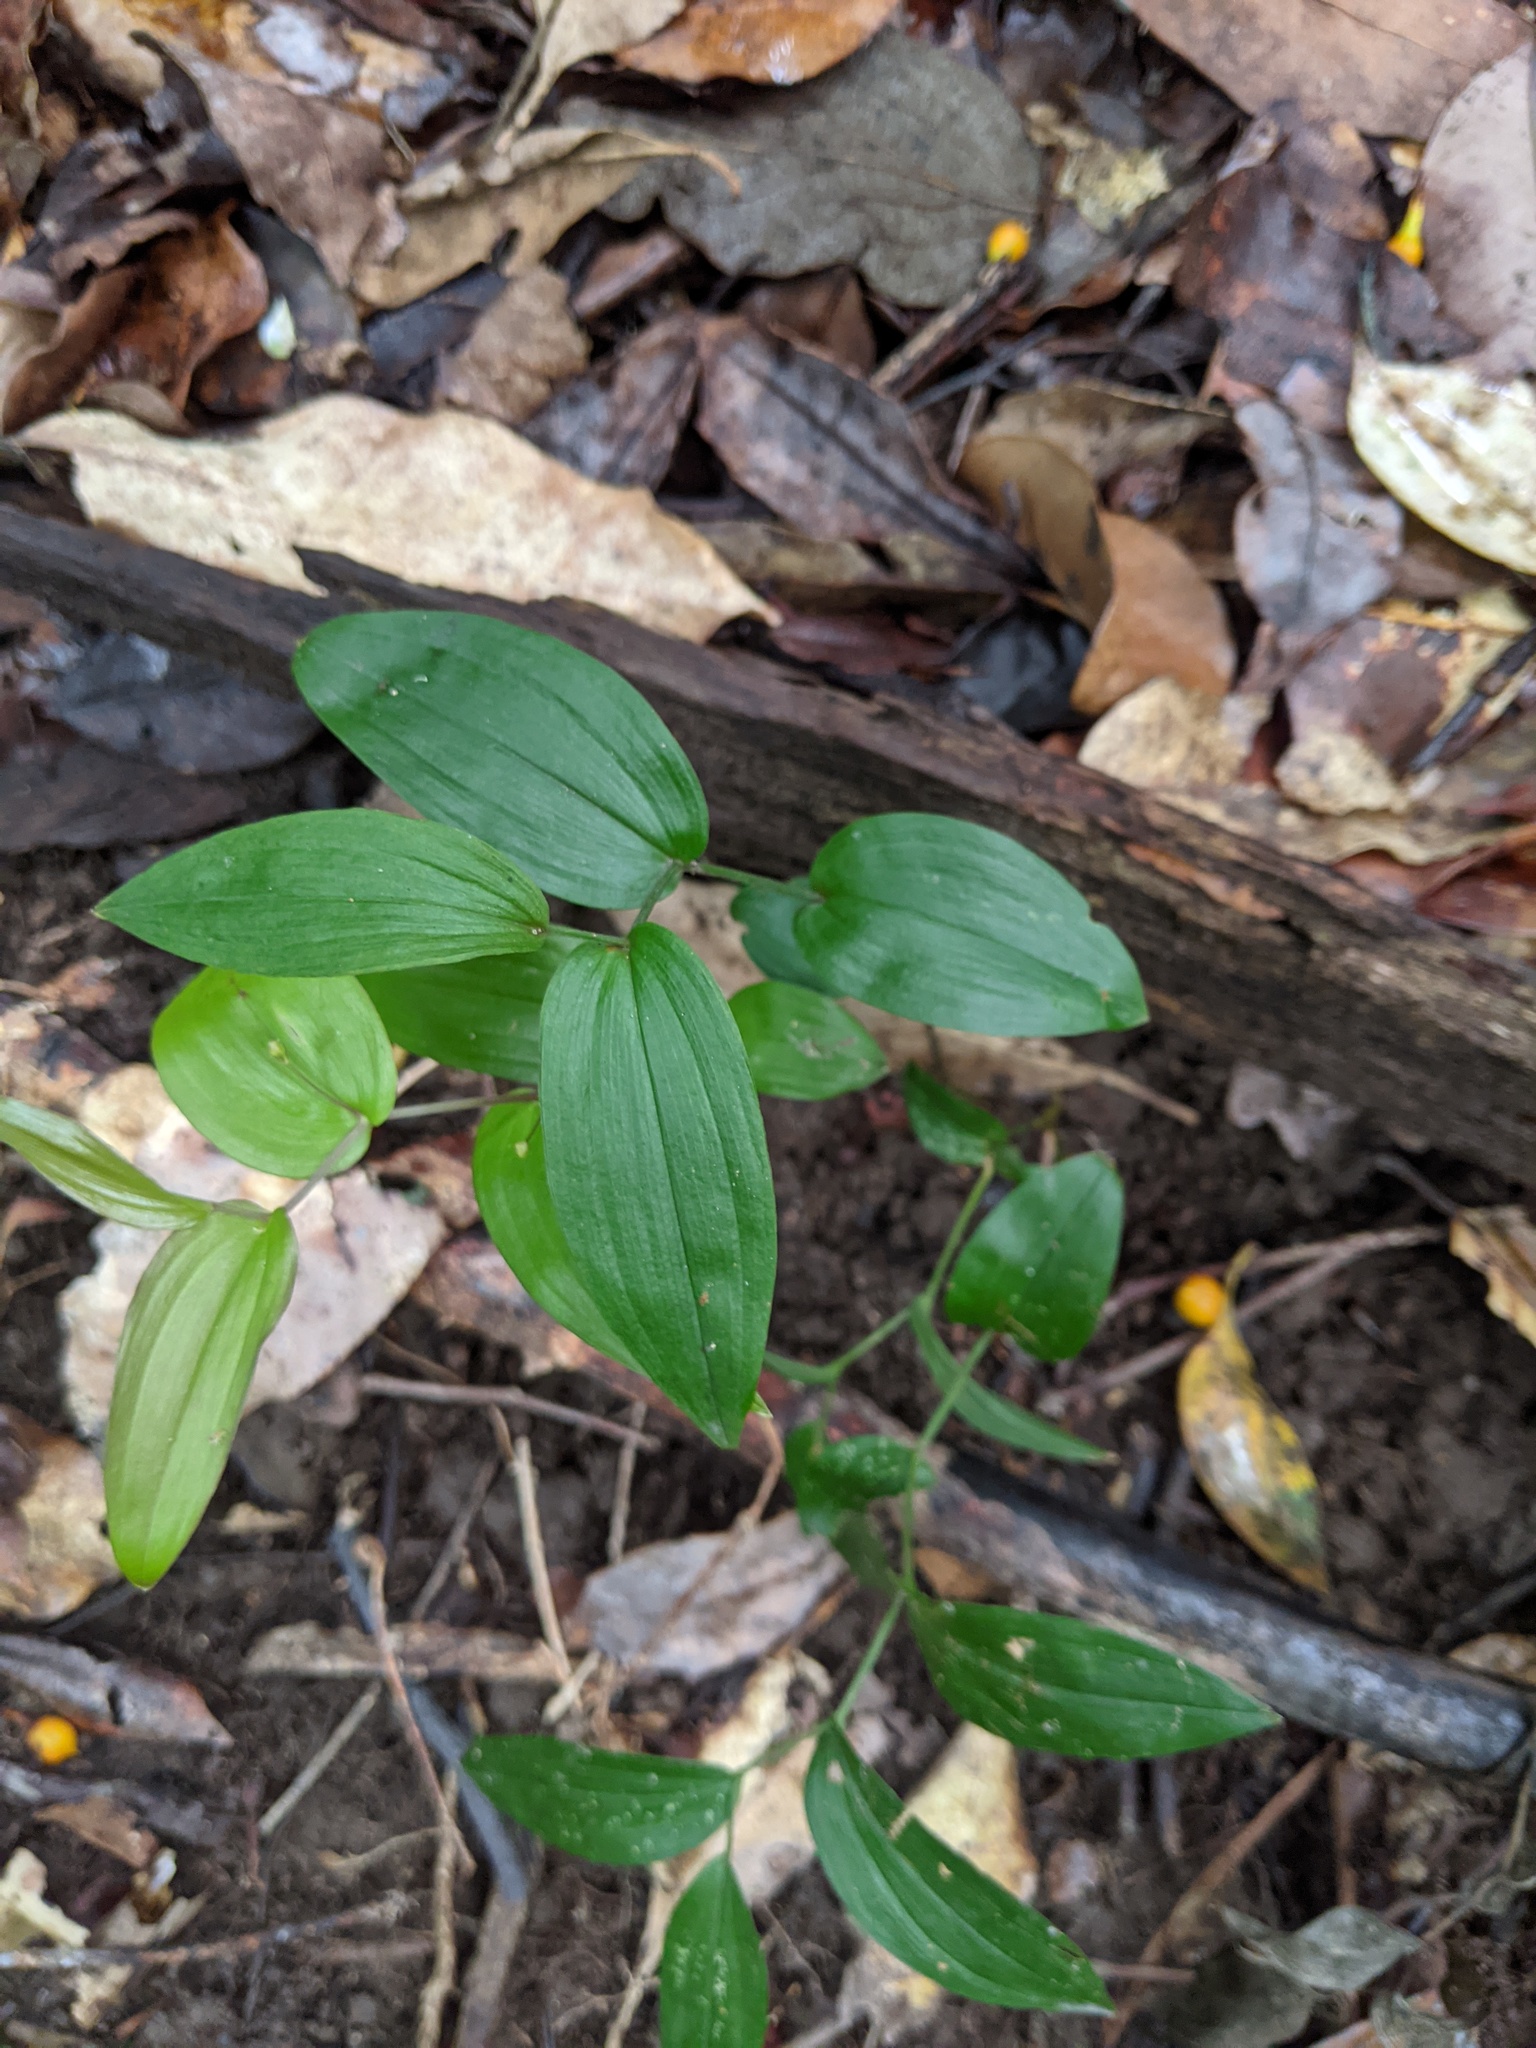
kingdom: Plantae
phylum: Tracheophyta
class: Liliopsida
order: Liliales
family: Colchicaceae
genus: Tripladenia
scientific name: Tripladenia cunninghamii
